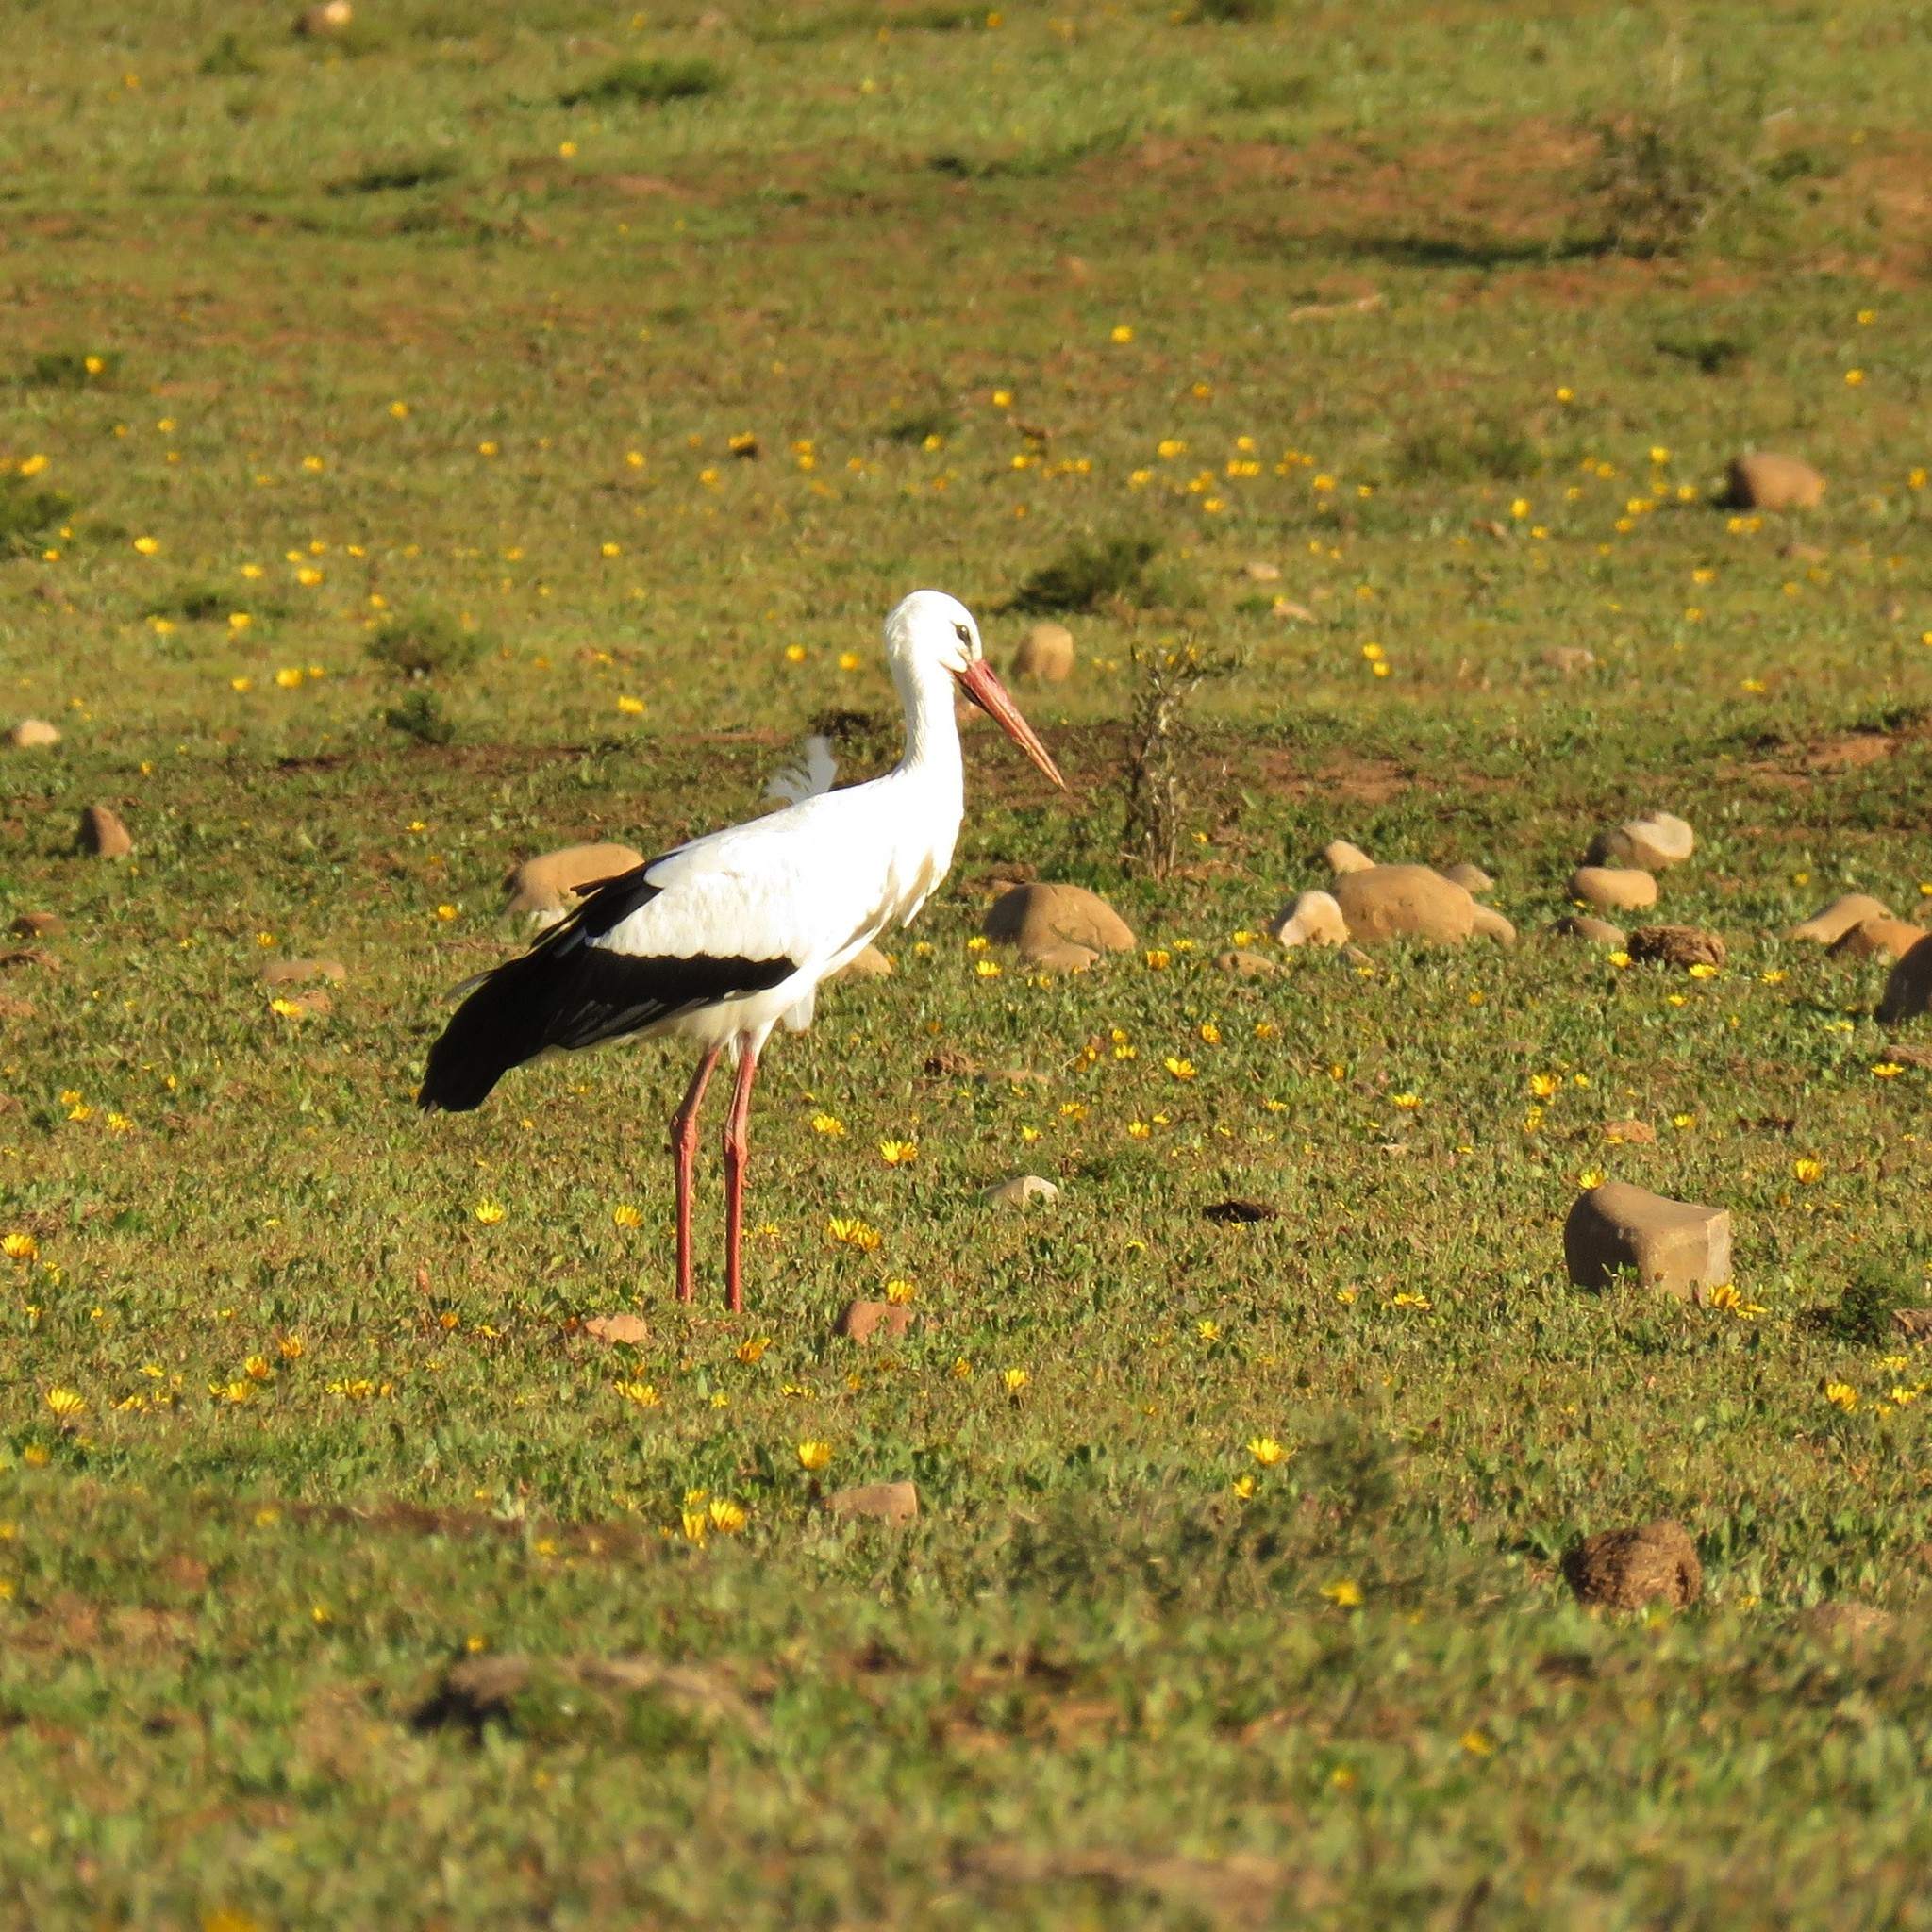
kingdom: Animalia
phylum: Chordata
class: Aves
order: Ciconiiformes
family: Ciconiidae
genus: Ciconia
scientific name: Ciconia ciconia
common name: White stork
